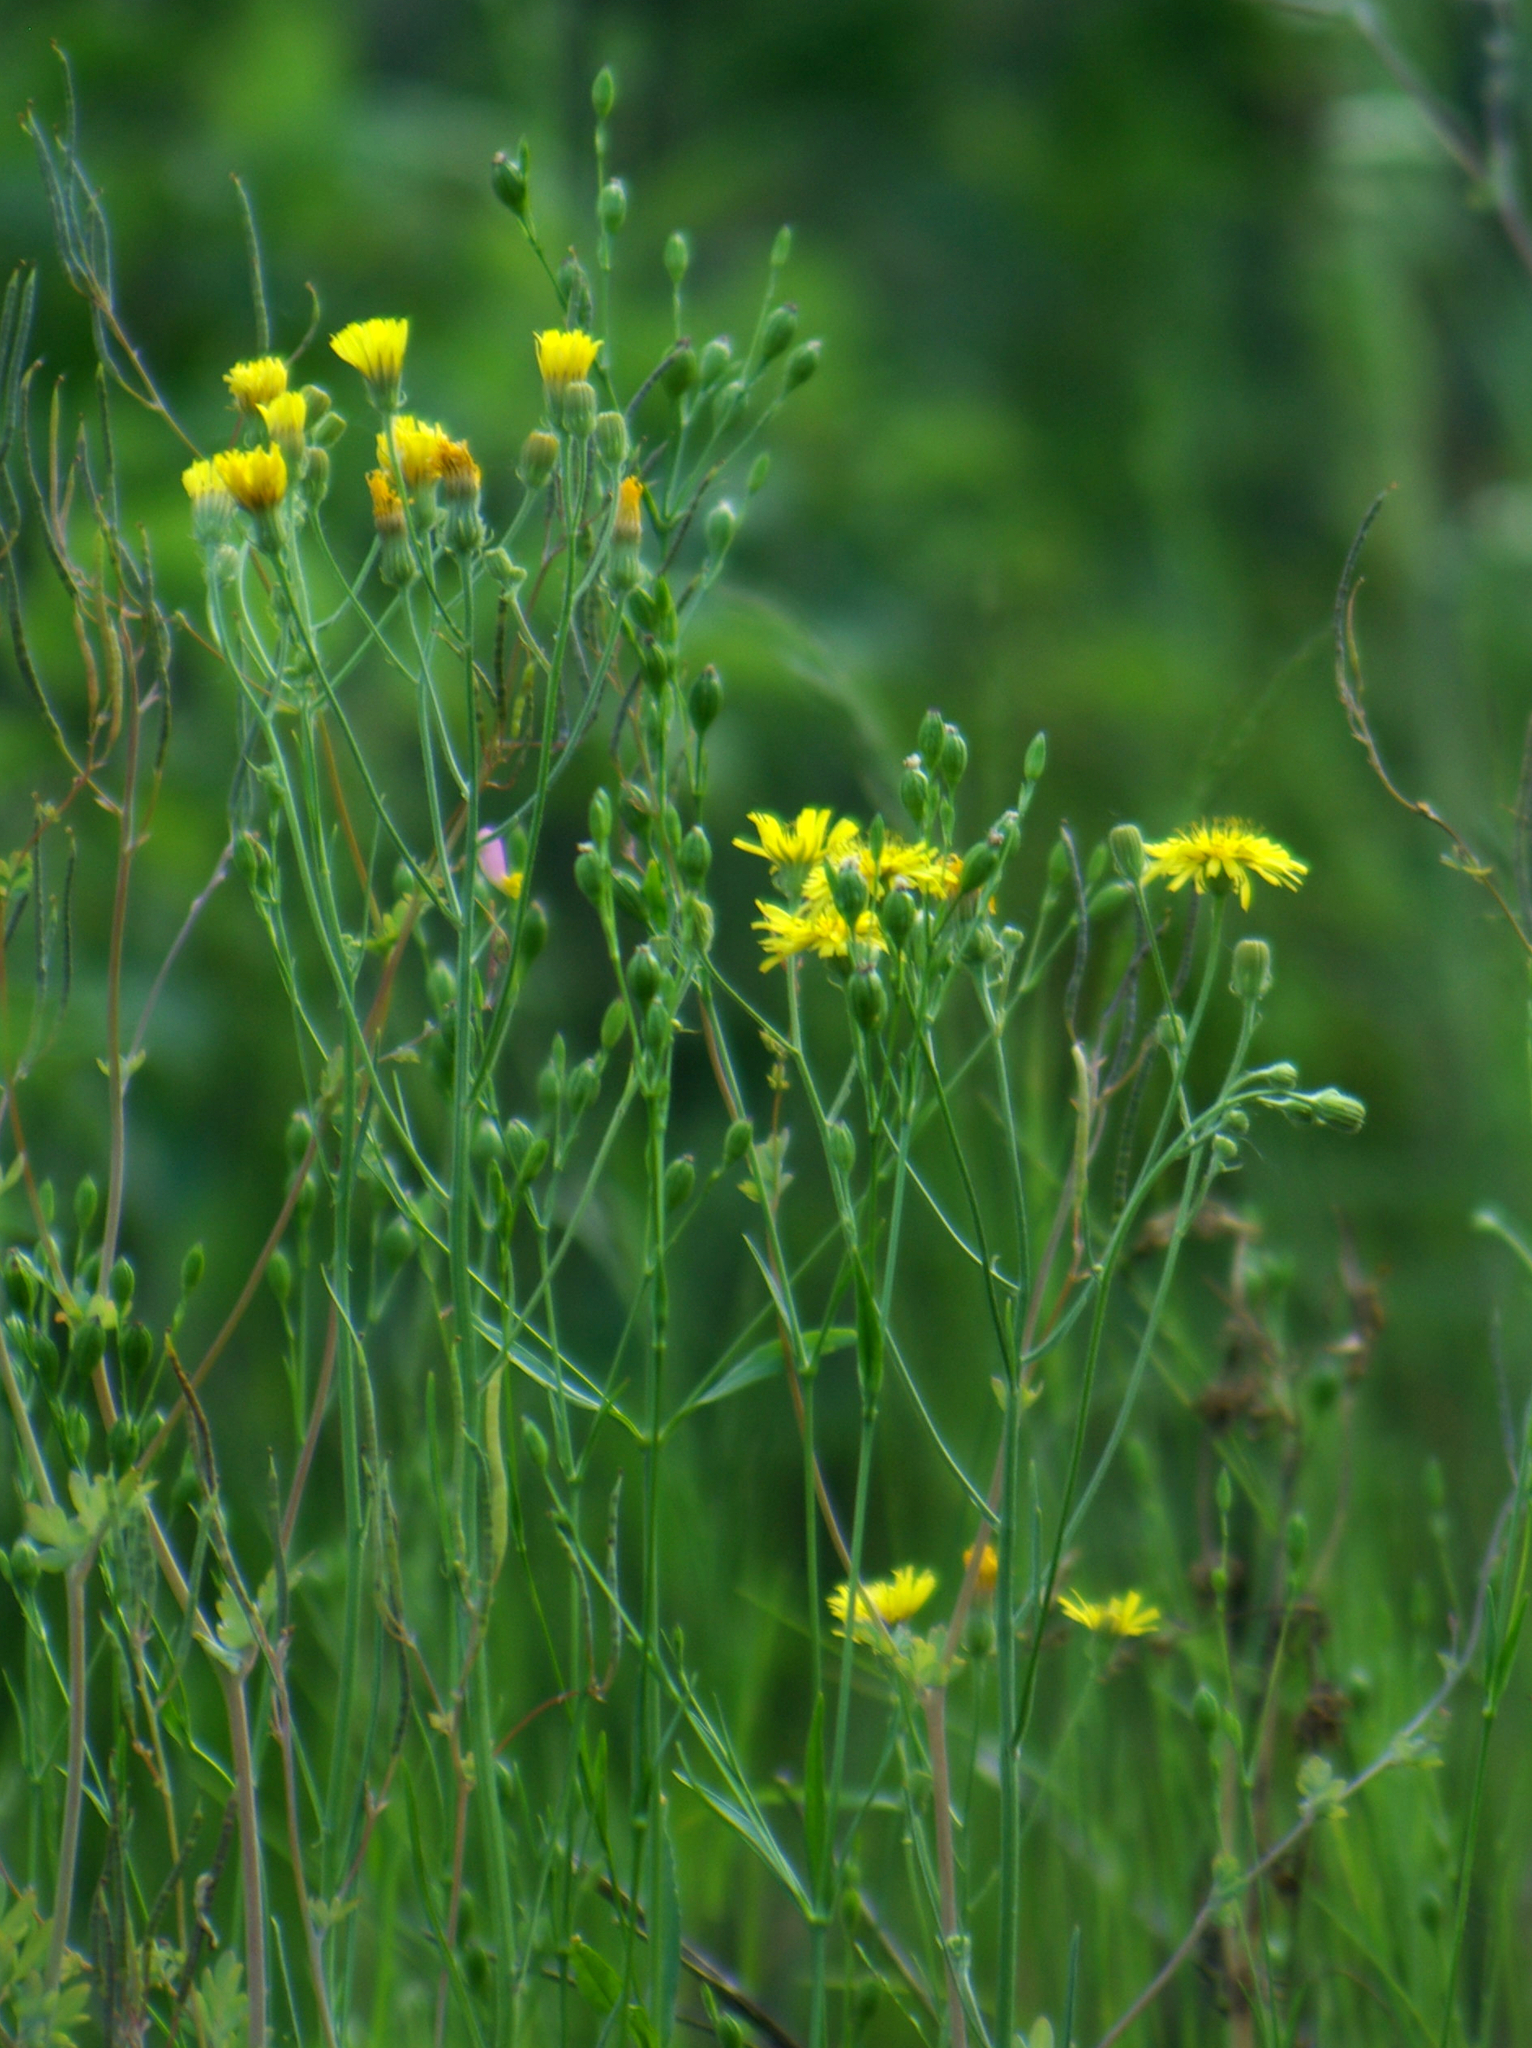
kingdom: Plantae
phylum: Tracheophyta
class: Magnoliopsida
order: Asterales
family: Asteraceae
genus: Hieracium
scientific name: Hieracium umbellatum
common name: Northern hawkweed
